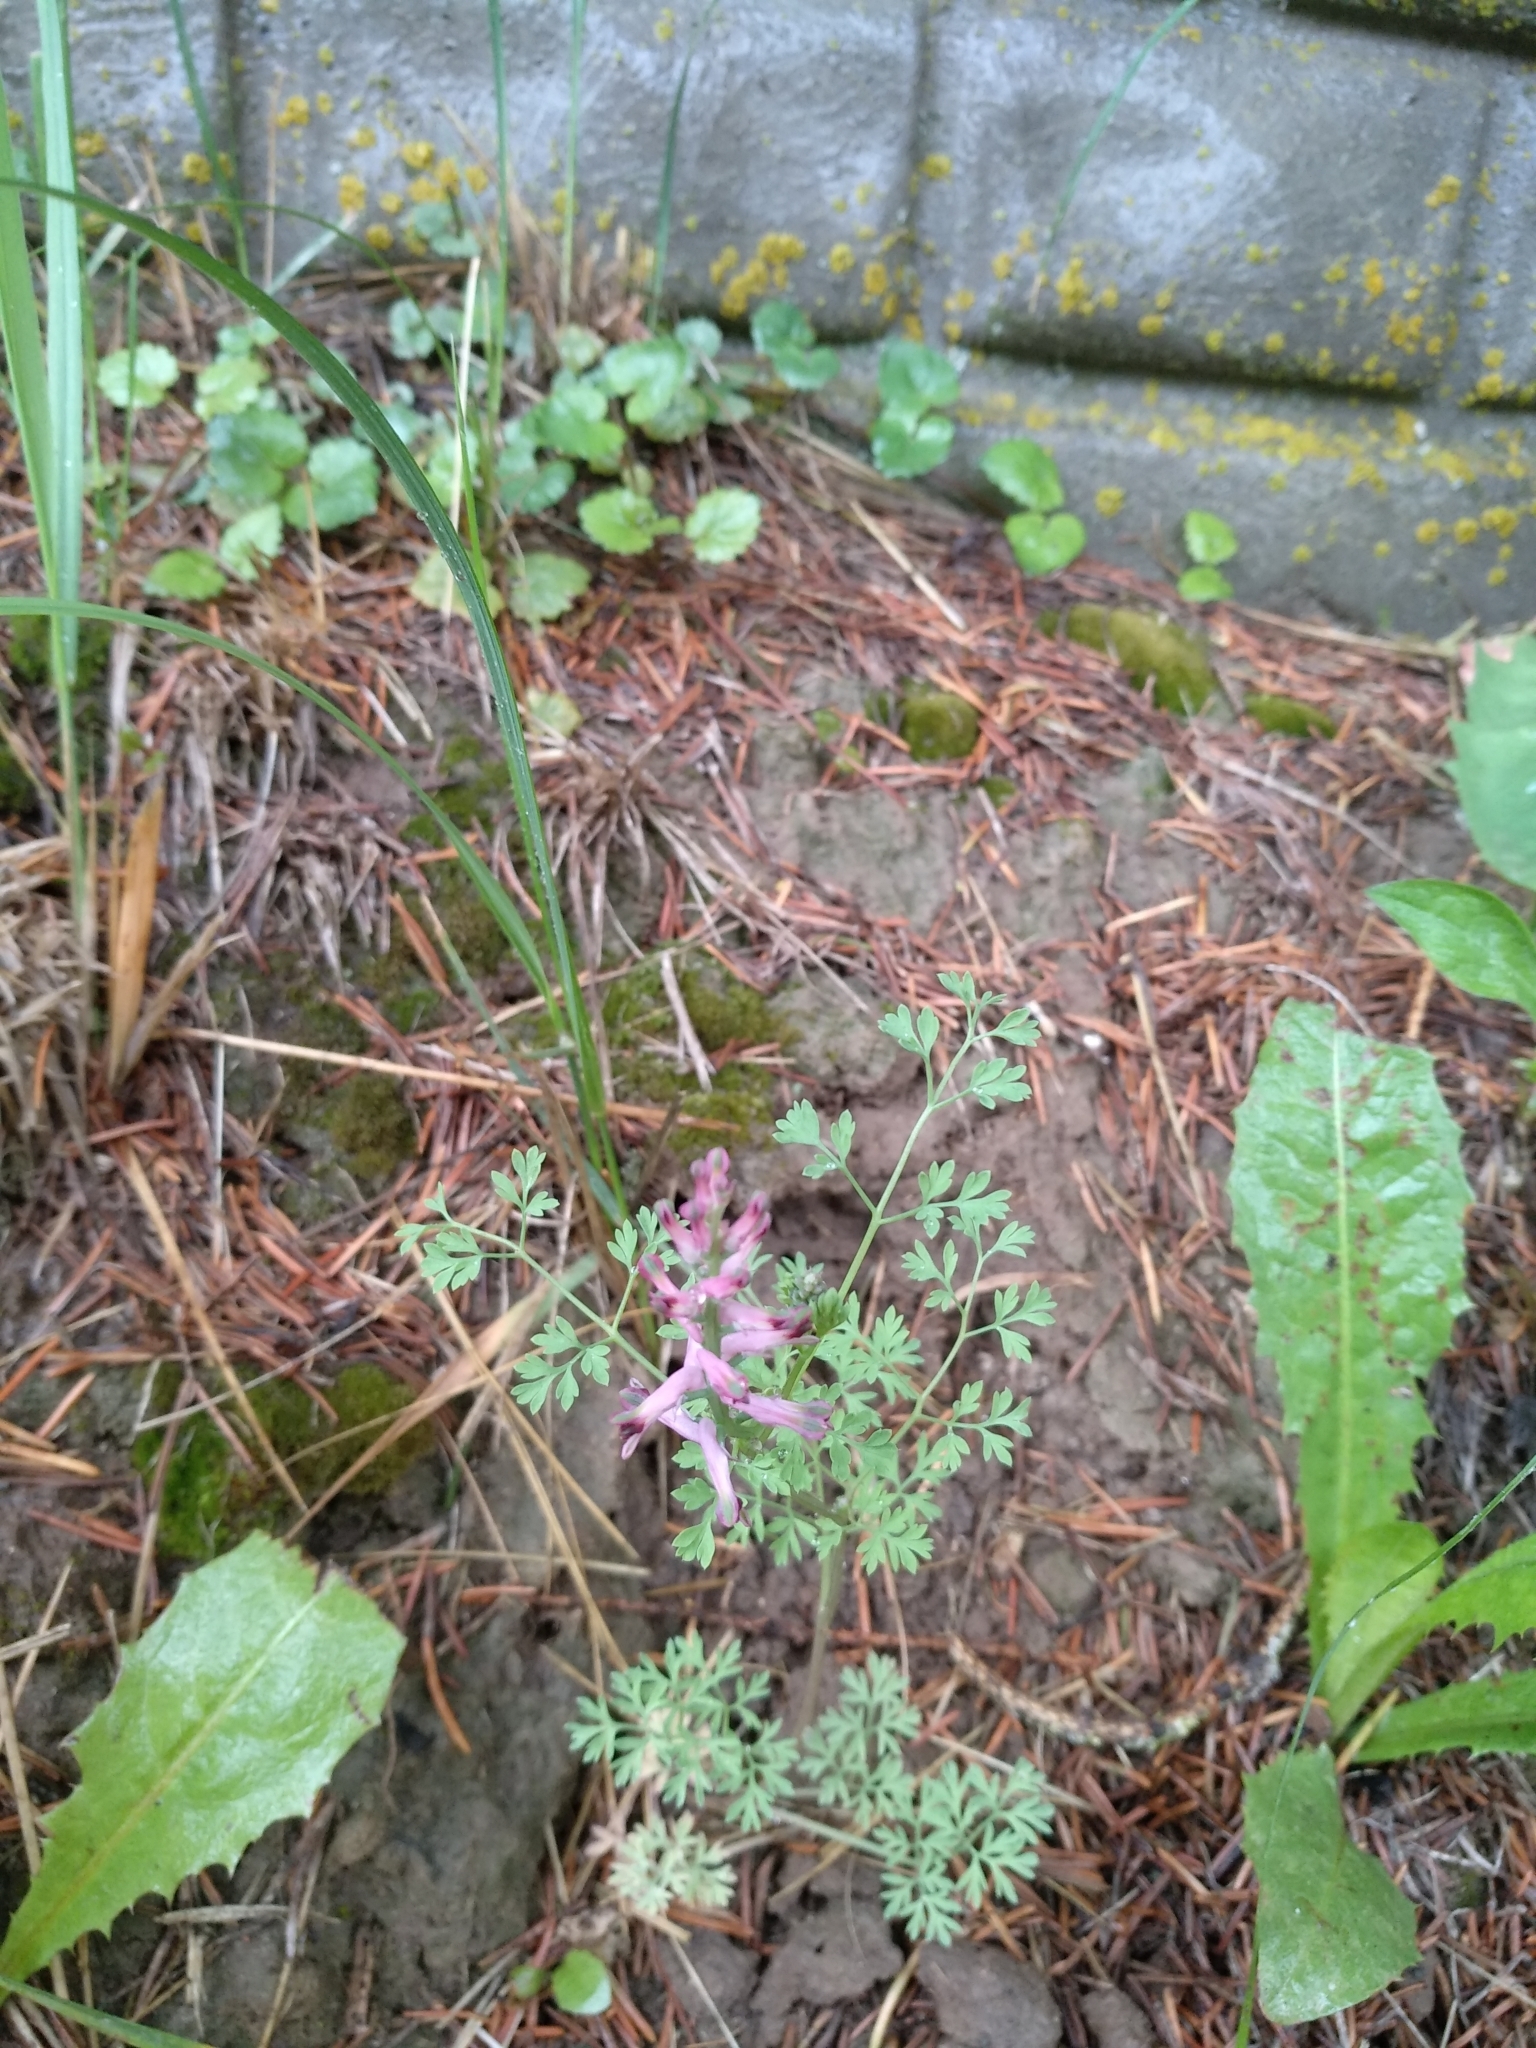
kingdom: Plantae
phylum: Tracheophyta
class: Magnoliopsida
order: Ranunculales
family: Papaveraceae
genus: Fumaria
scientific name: Fumaria officinalis
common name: Common fumitory
